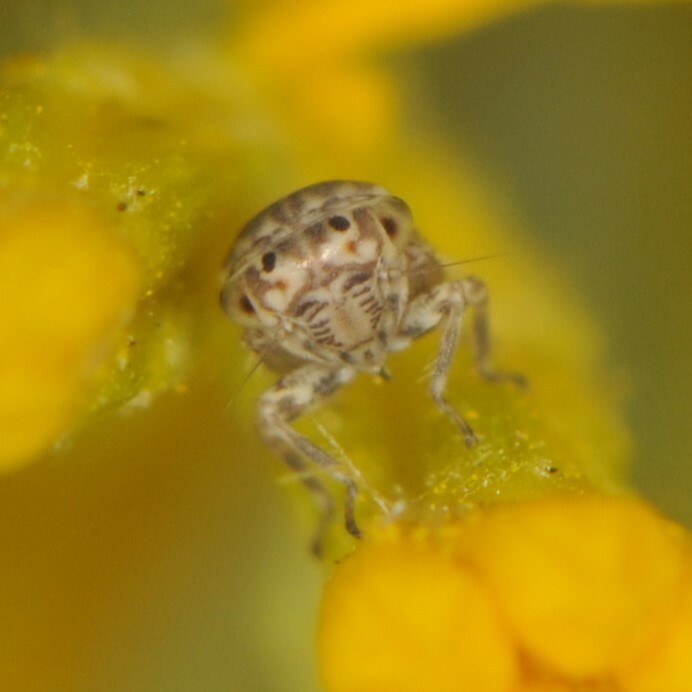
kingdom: Animalia
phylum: Arthropoda
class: Insecta
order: Hemiptera
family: Cicadellidae
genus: Ceratagallia
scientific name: Ceratagallia
